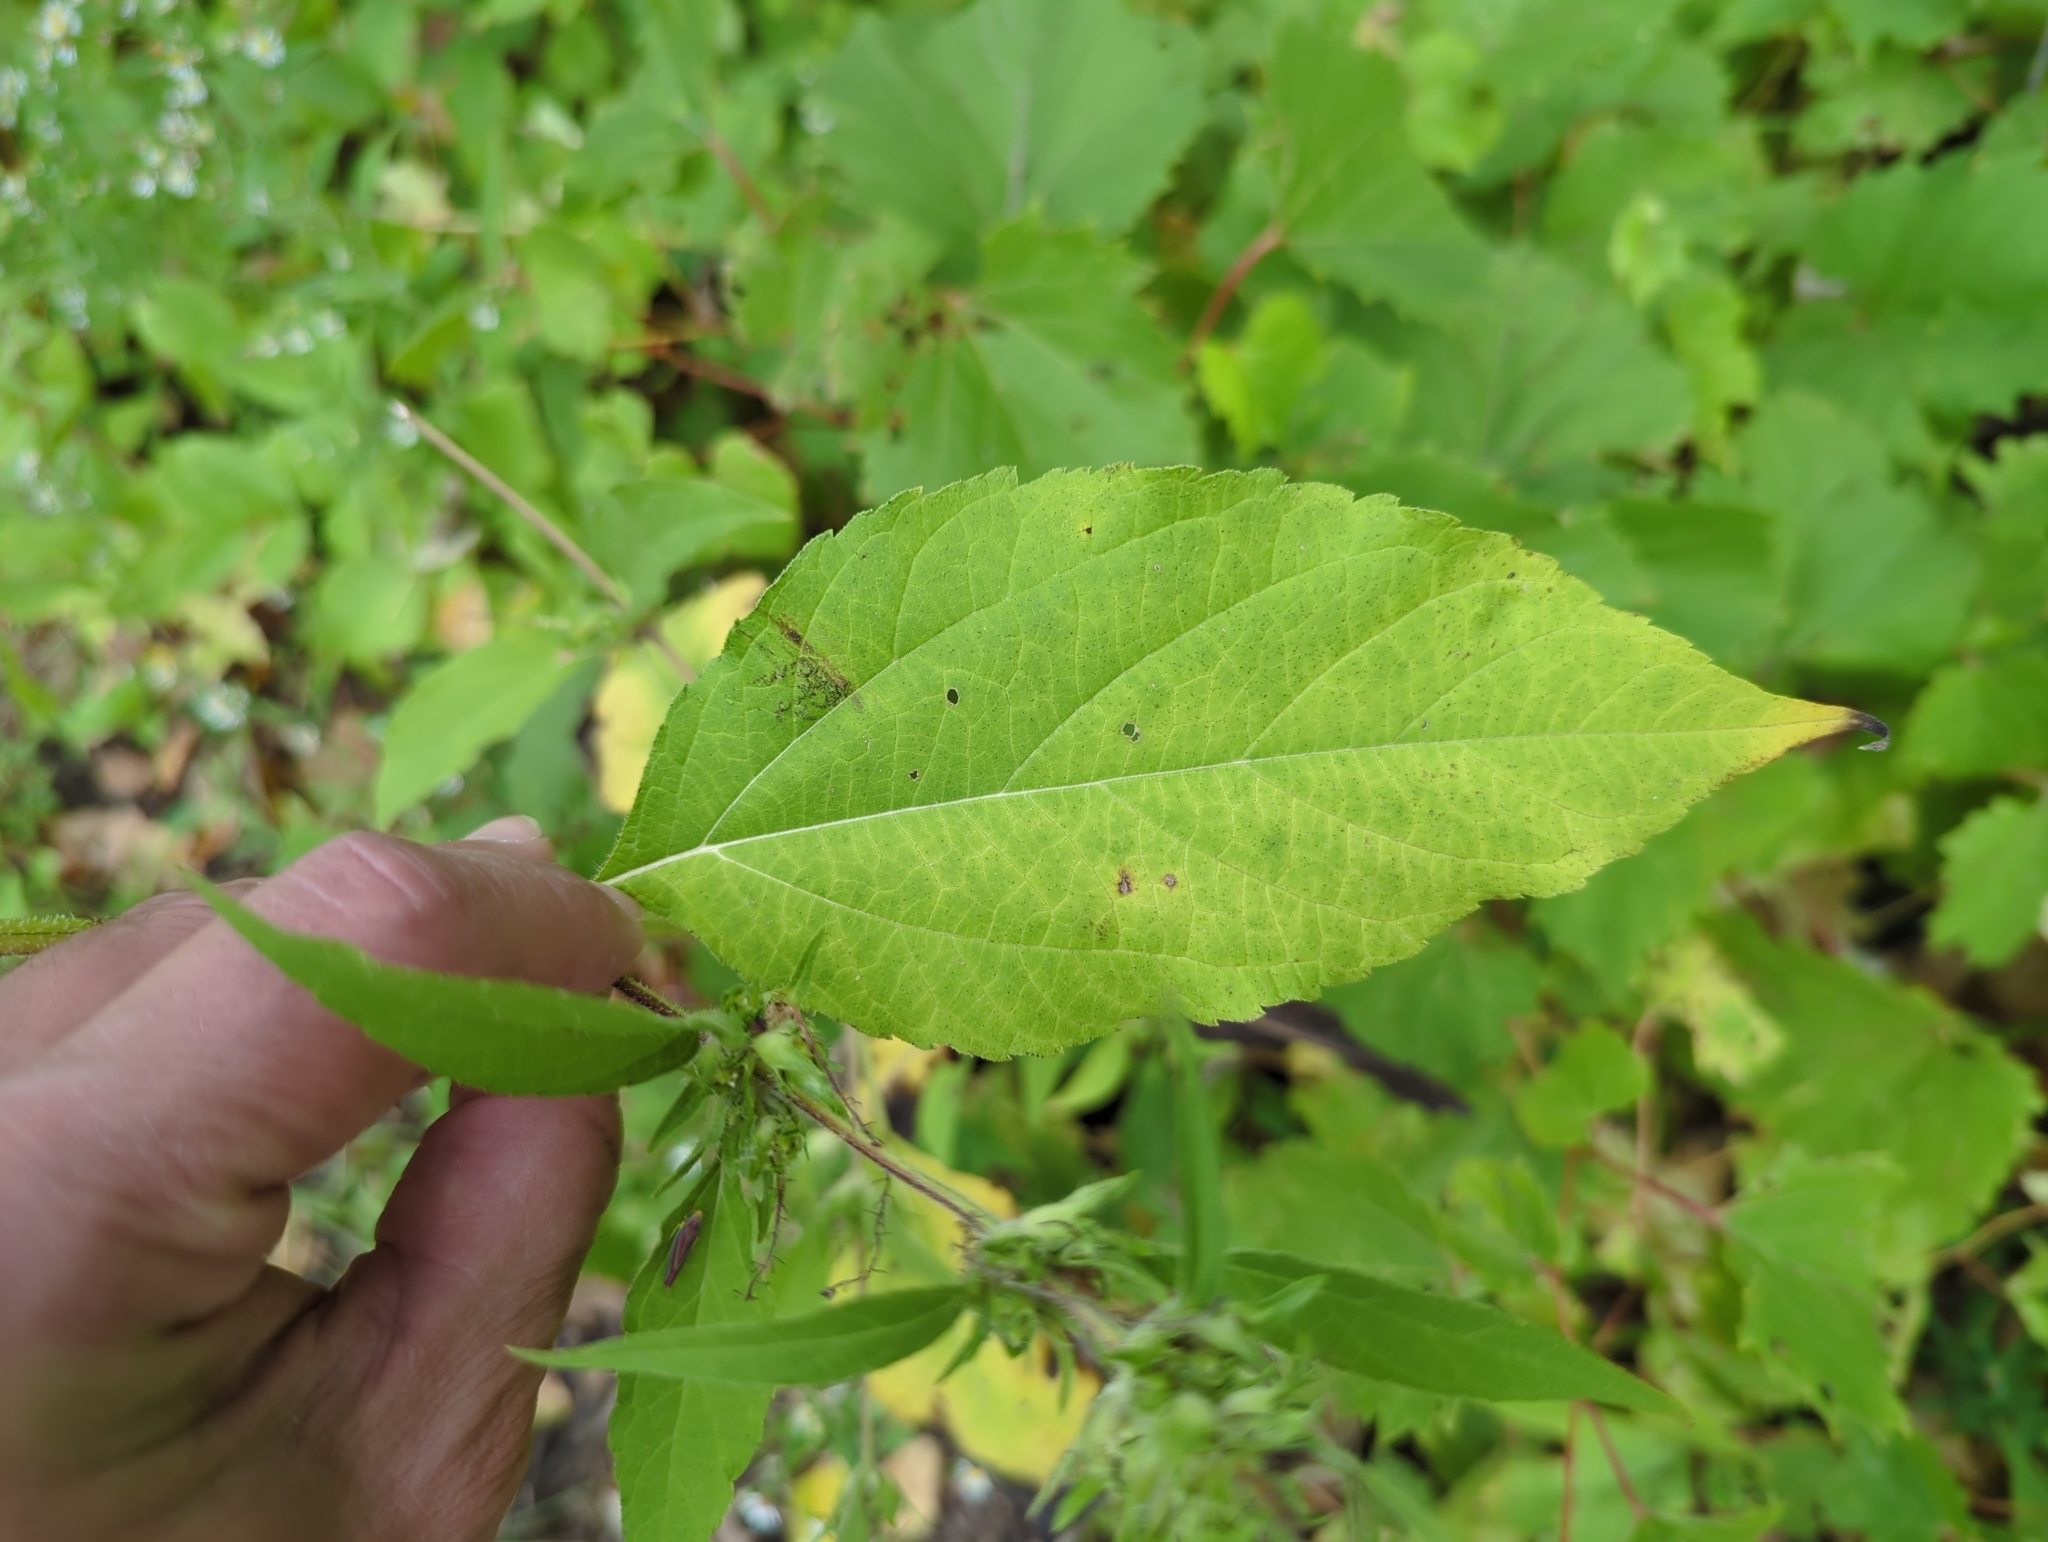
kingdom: Plantae
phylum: Tracheophyta
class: Magnoliopsida
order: Asterales
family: Asteraceae
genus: Ambrosia
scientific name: Ambrosia trifida
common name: Giant ragweed
